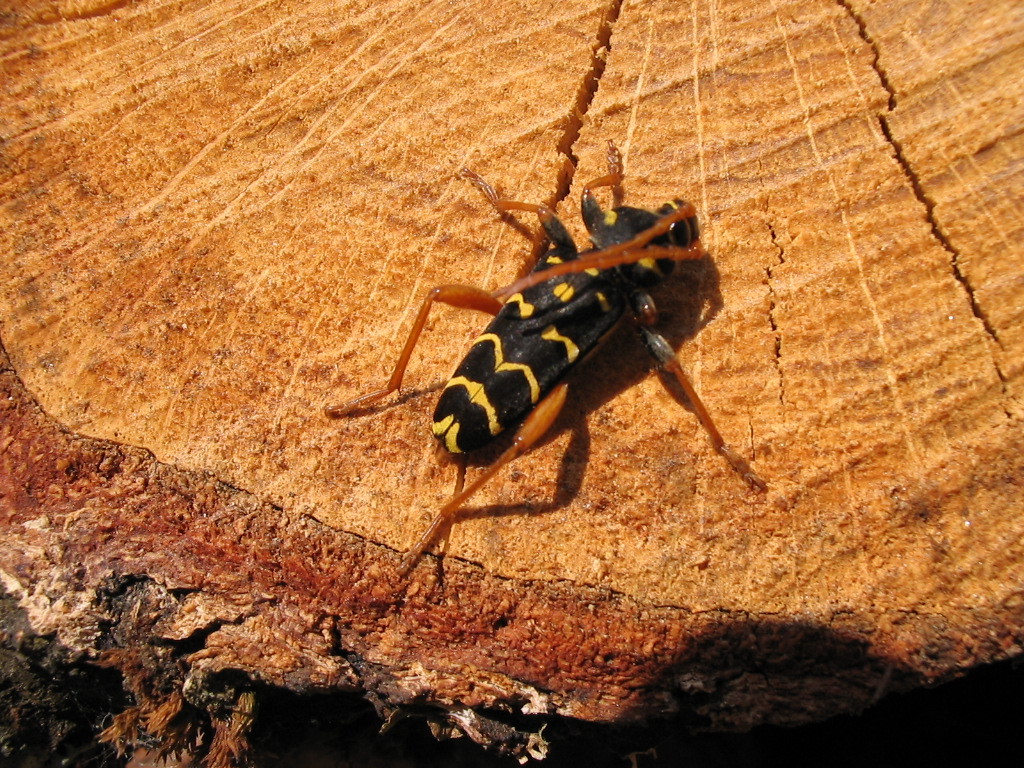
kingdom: Animalia
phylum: Arthropoda
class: Insecta
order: Coleoptera
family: Cerambycidae
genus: Plagionotus
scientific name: Plagionotus arcuatus
